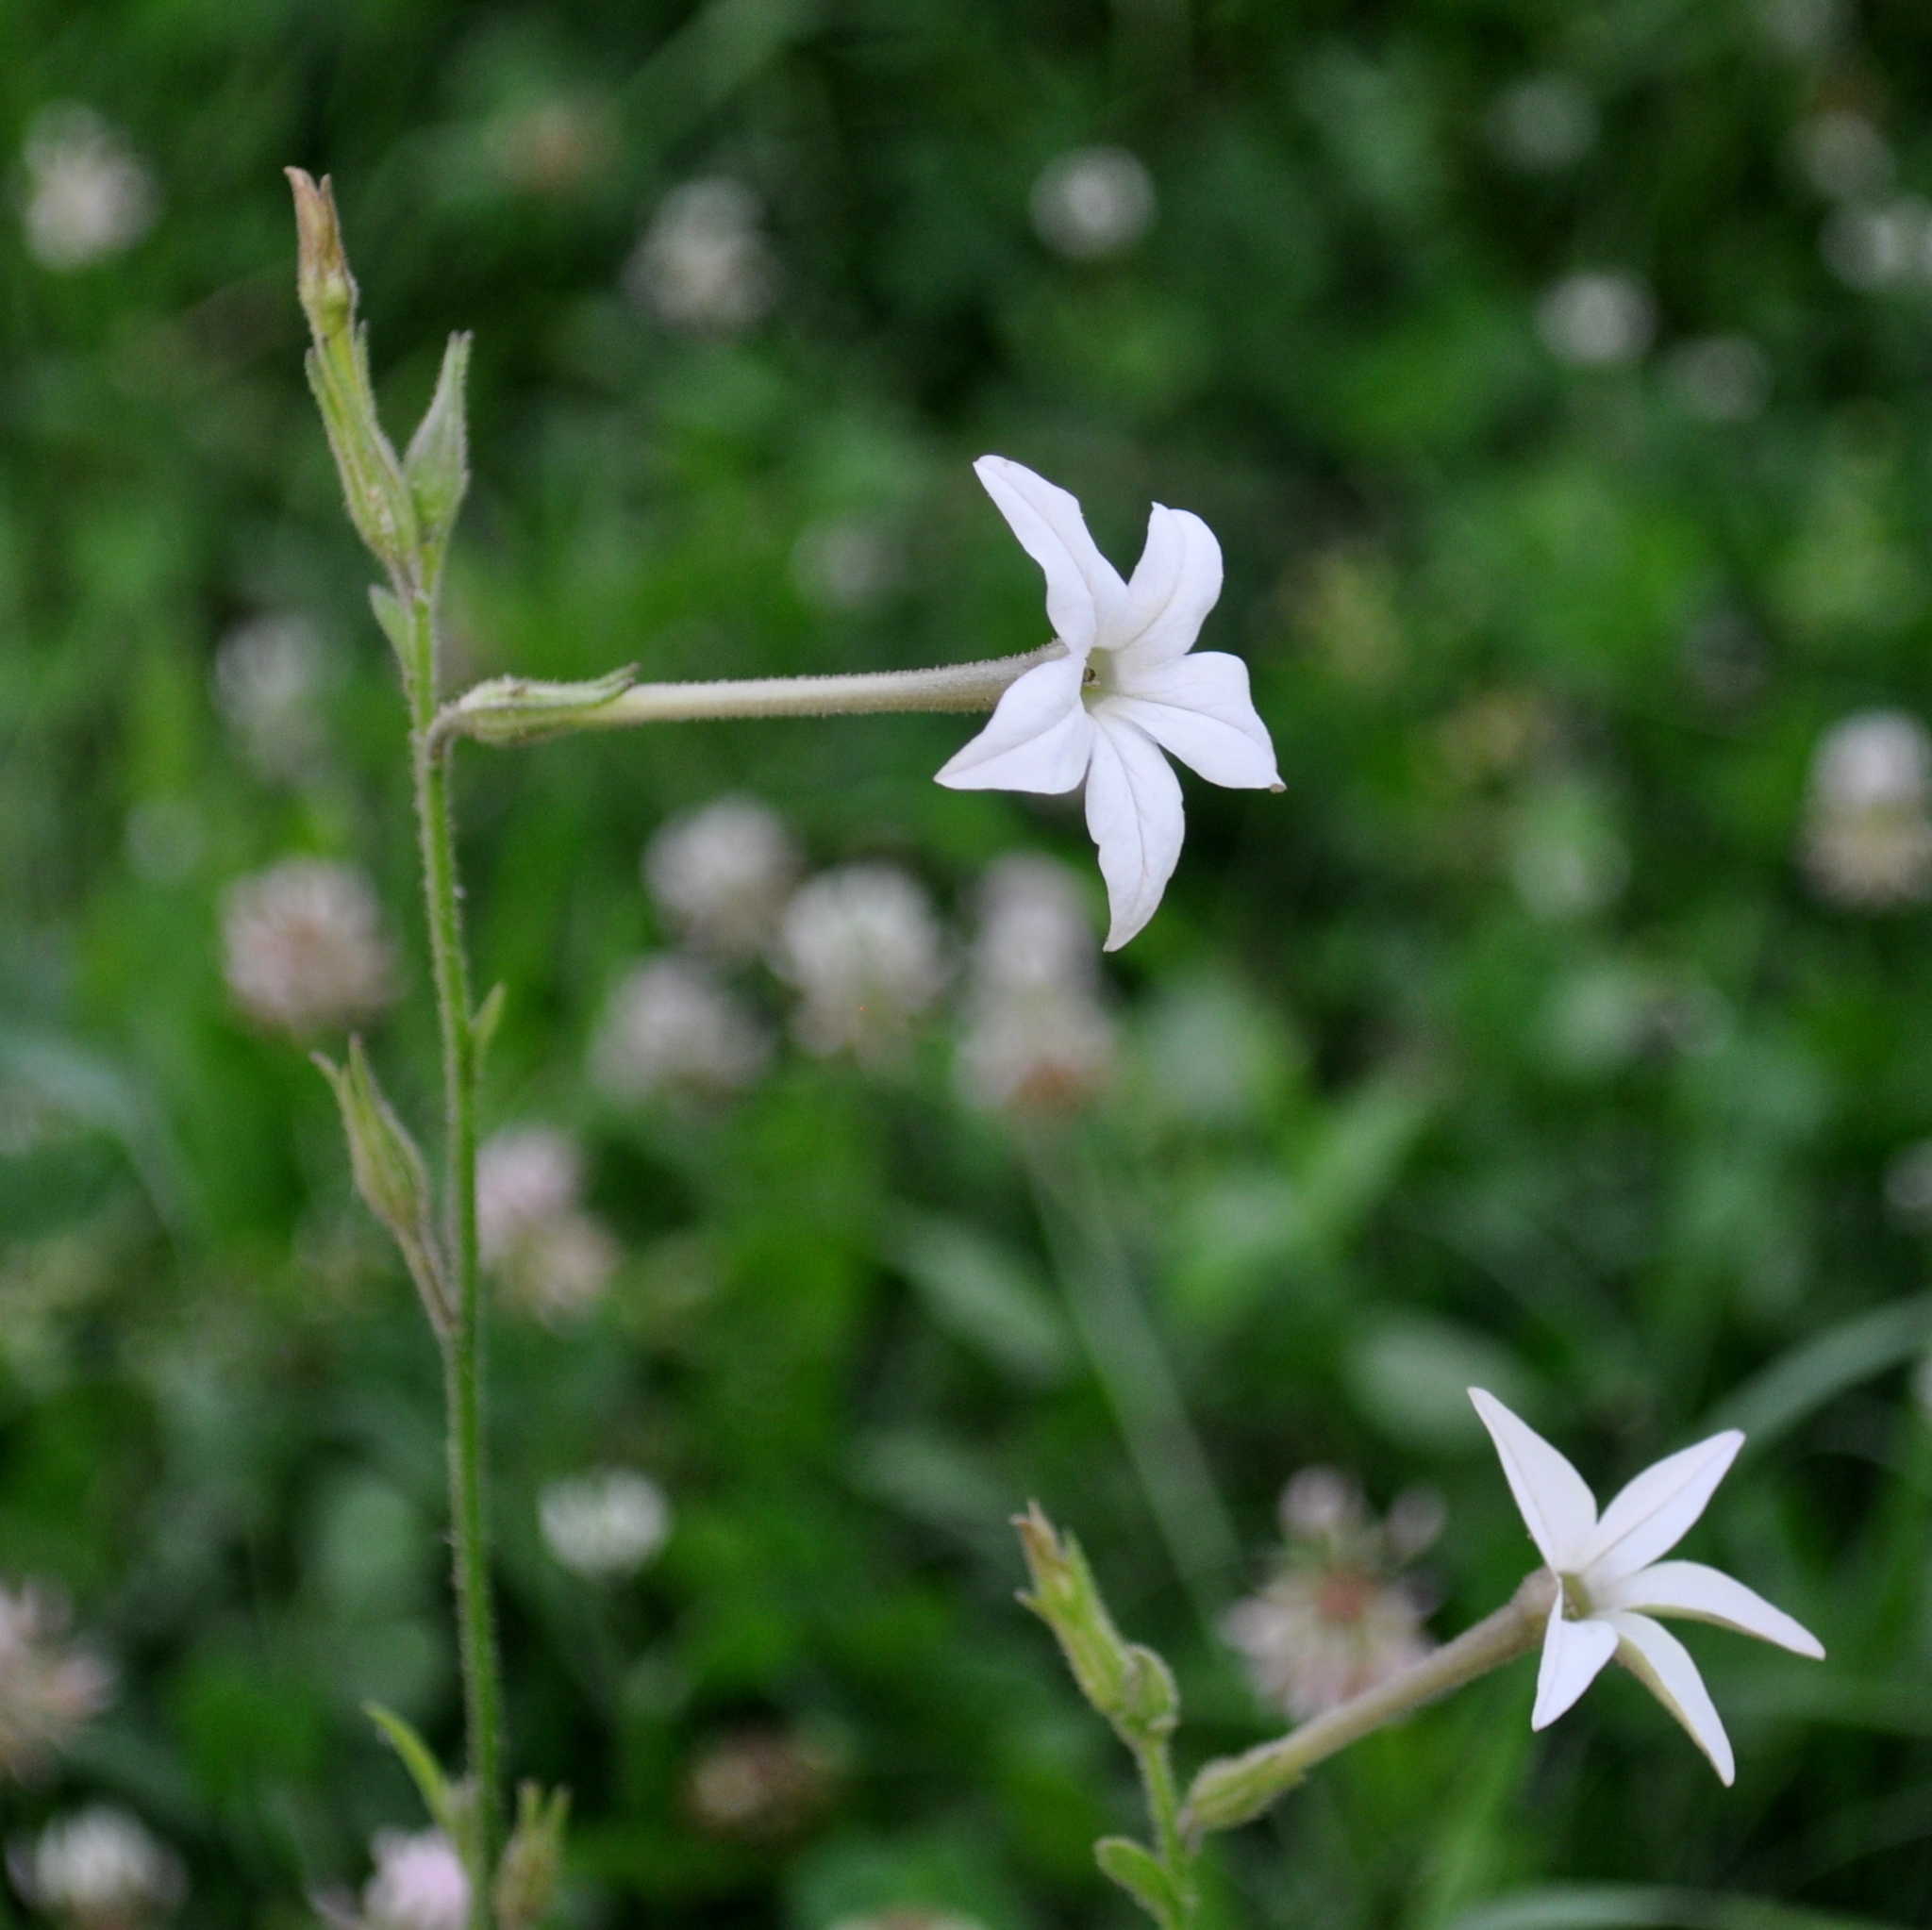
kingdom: Plantae
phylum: Tracheophyta
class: Magnoliopsida
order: Solanales
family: Solanaceae
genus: Nicotiana
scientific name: Nicotiana longiflora
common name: Long-flowered tobacco
